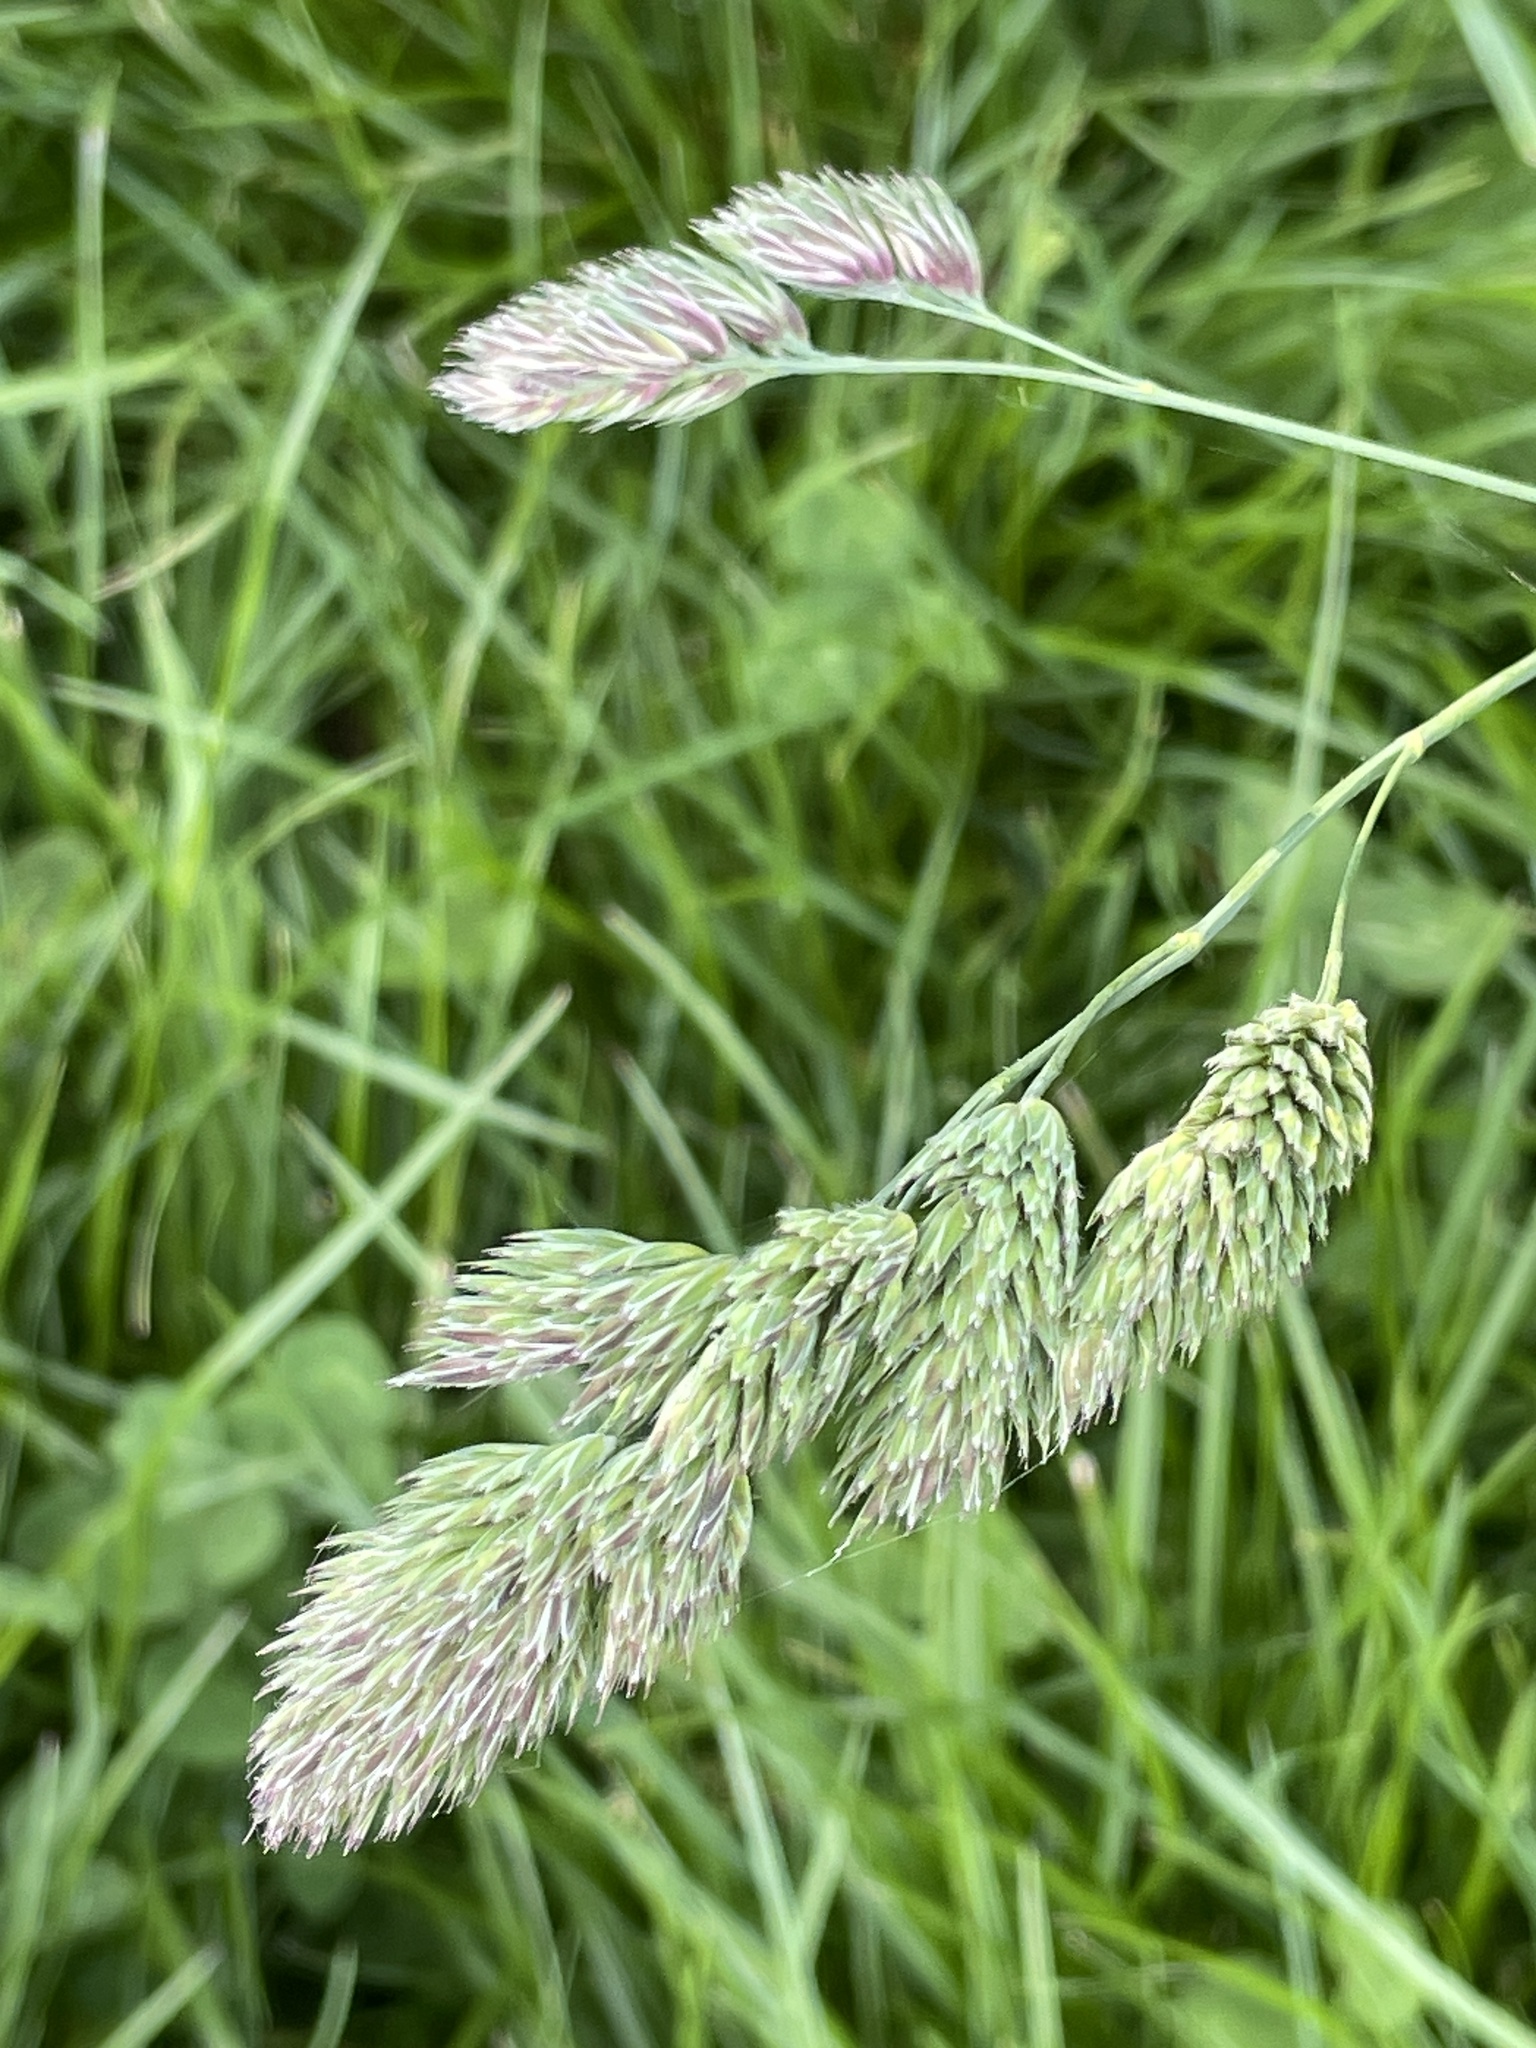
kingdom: Plantae
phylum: Tracheophyta
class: Liliopsida
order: Poales
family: Poaceae
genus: Dactylis
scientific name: Dactylis glomerata
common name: Orchardgrass
